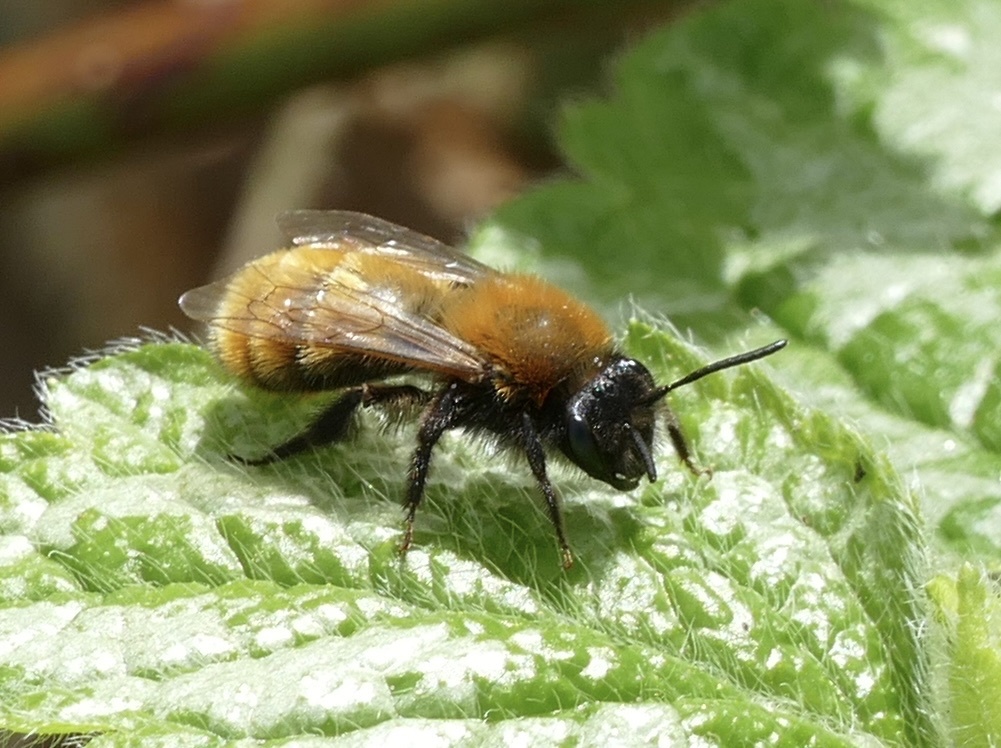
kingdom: Animalia
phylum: Arthropoda
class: Insecta
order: Hymenoptera
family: Andrenidae
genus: Andrena
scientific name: Andrena fulva
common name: Tawny mining bee
